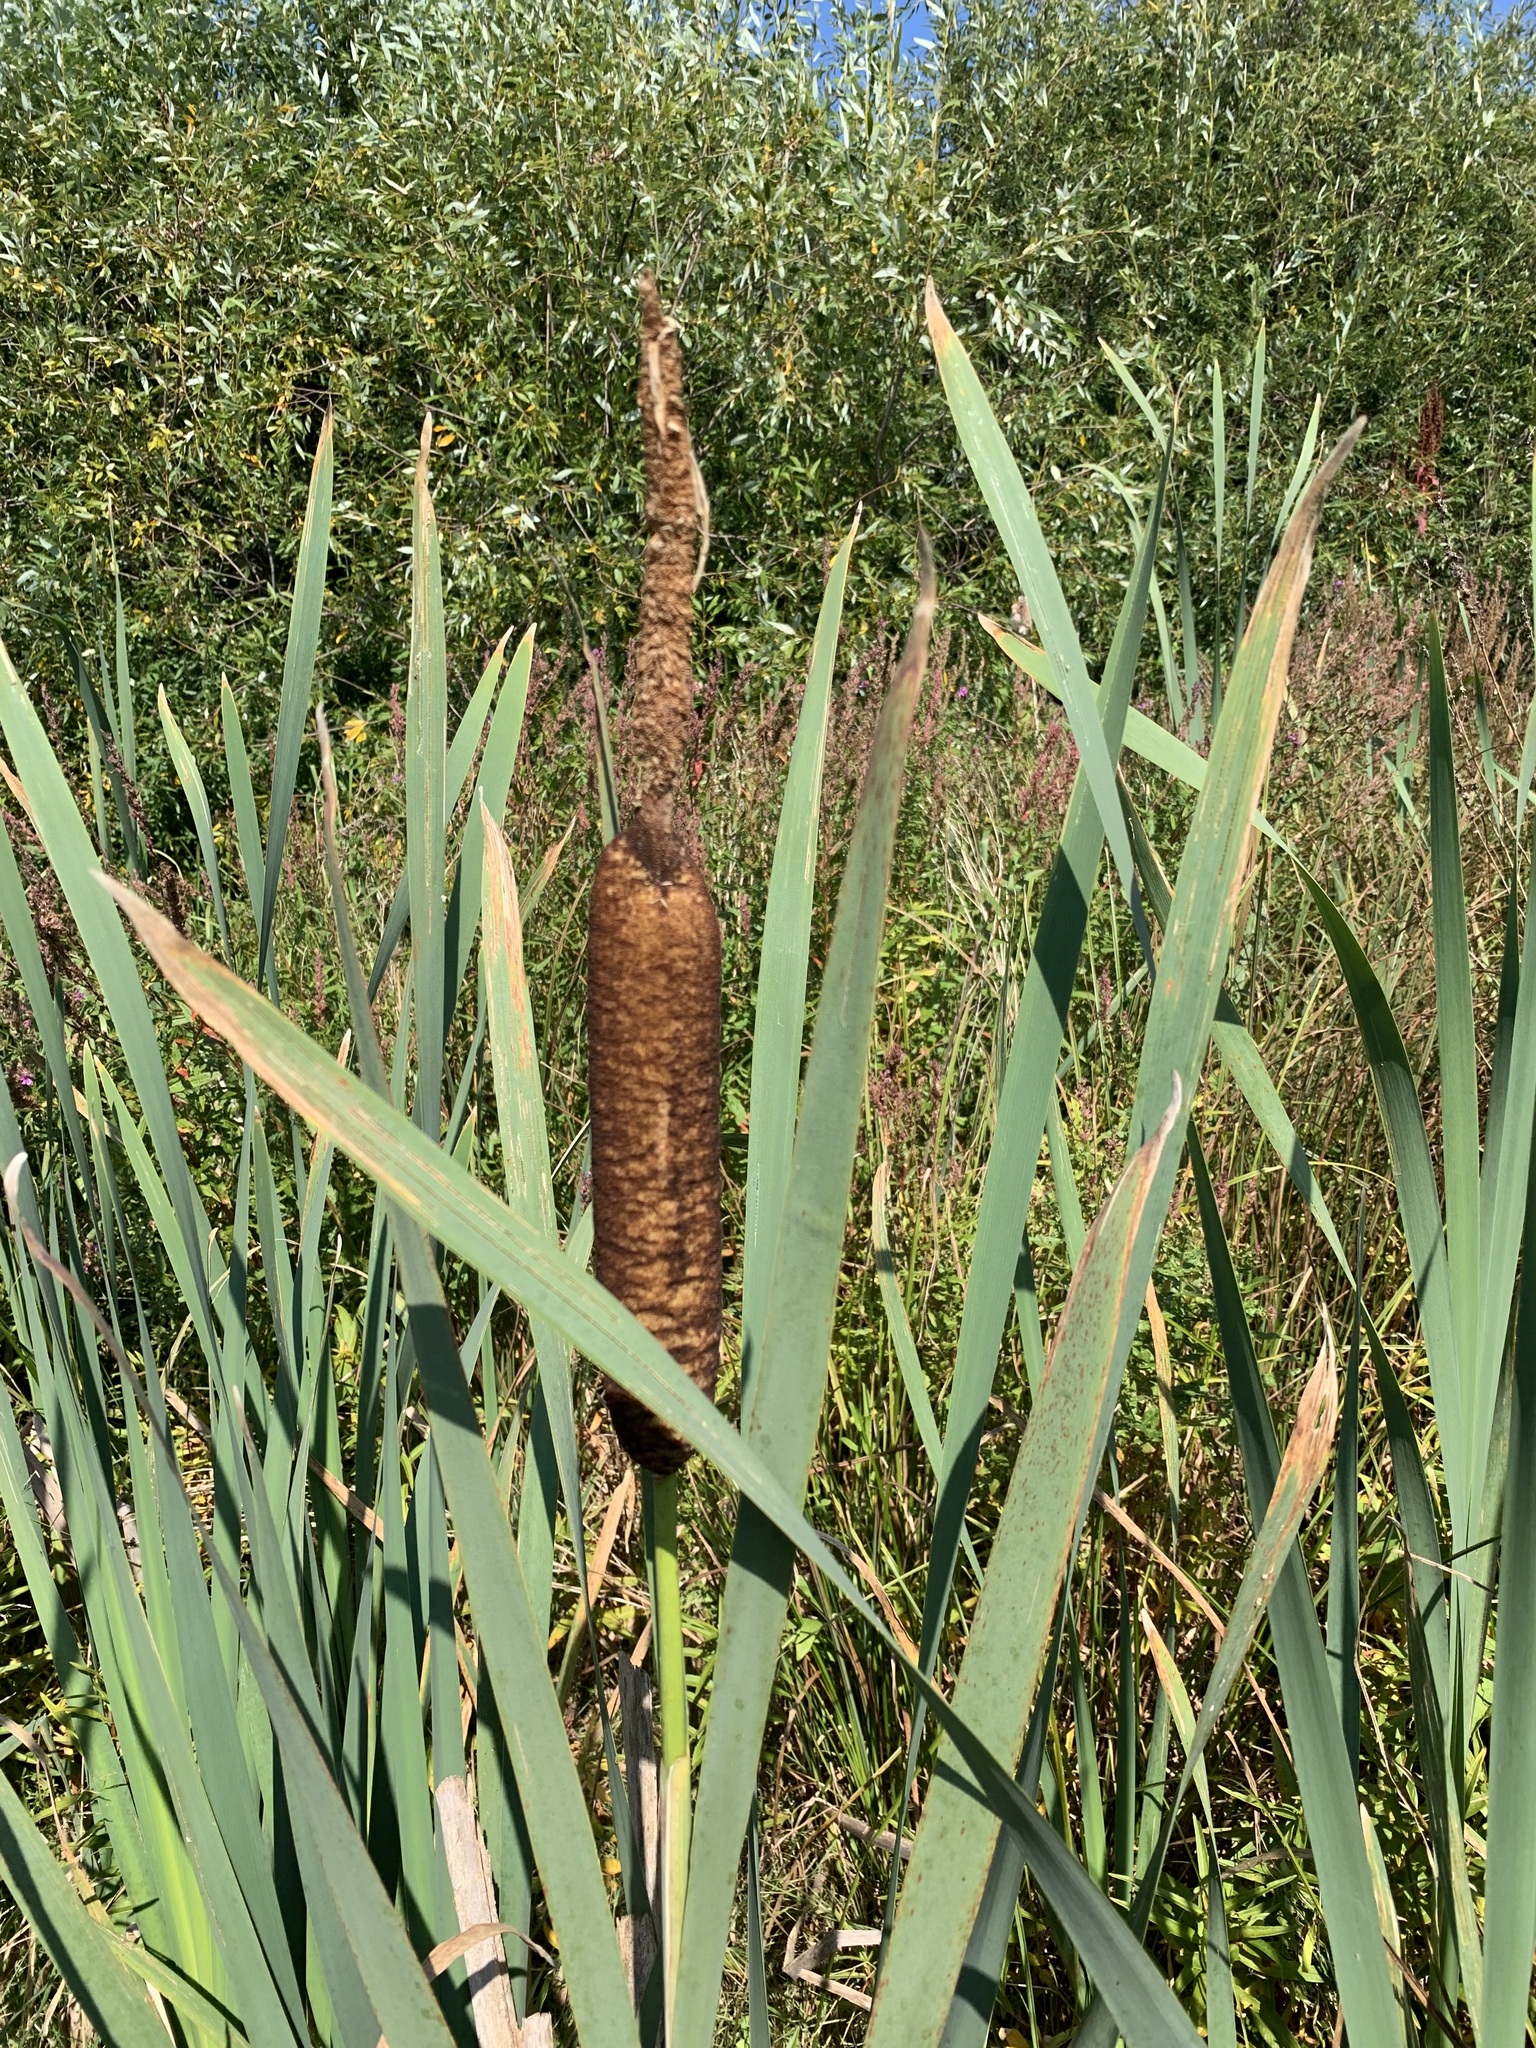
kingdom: Plantae
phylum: Tracheophyta
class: Liliopsida
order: Poales
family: Typhaceae
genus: Typha
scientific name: Typha latifolia
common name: Broadleaf cattail
